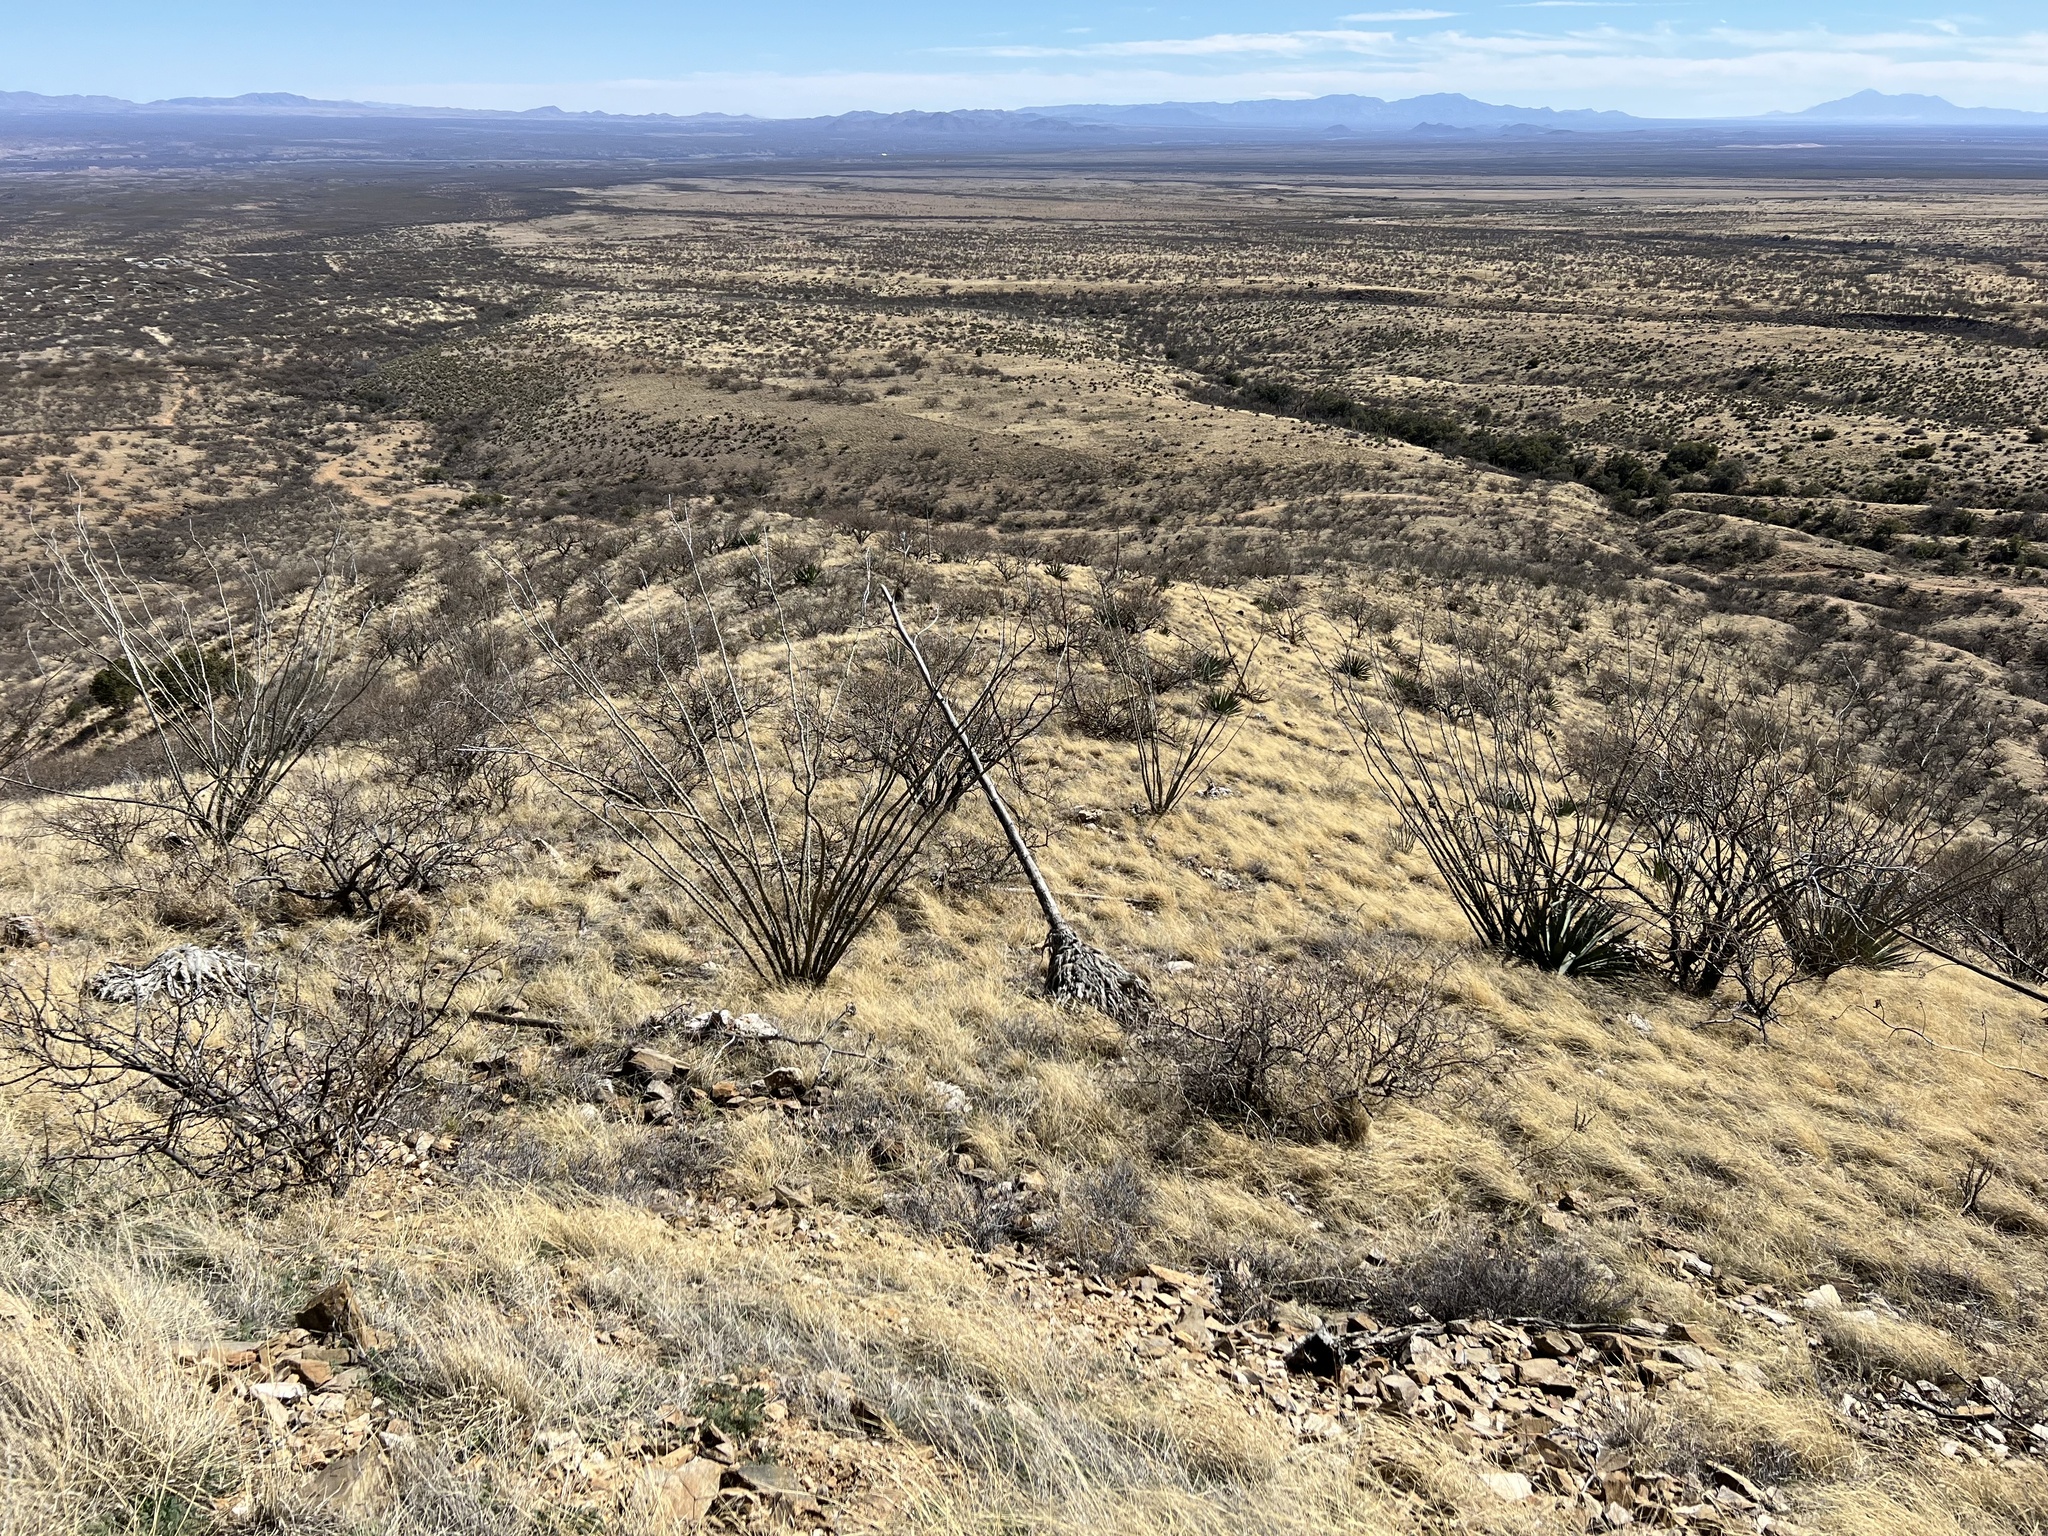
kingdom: Plantae
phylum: Tracheophyta
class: Magnoliopsida
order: Ericales
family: Fouquieriaceae
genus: Fouquieria
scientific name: Fouquieria splendens
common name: Vine-cactus
